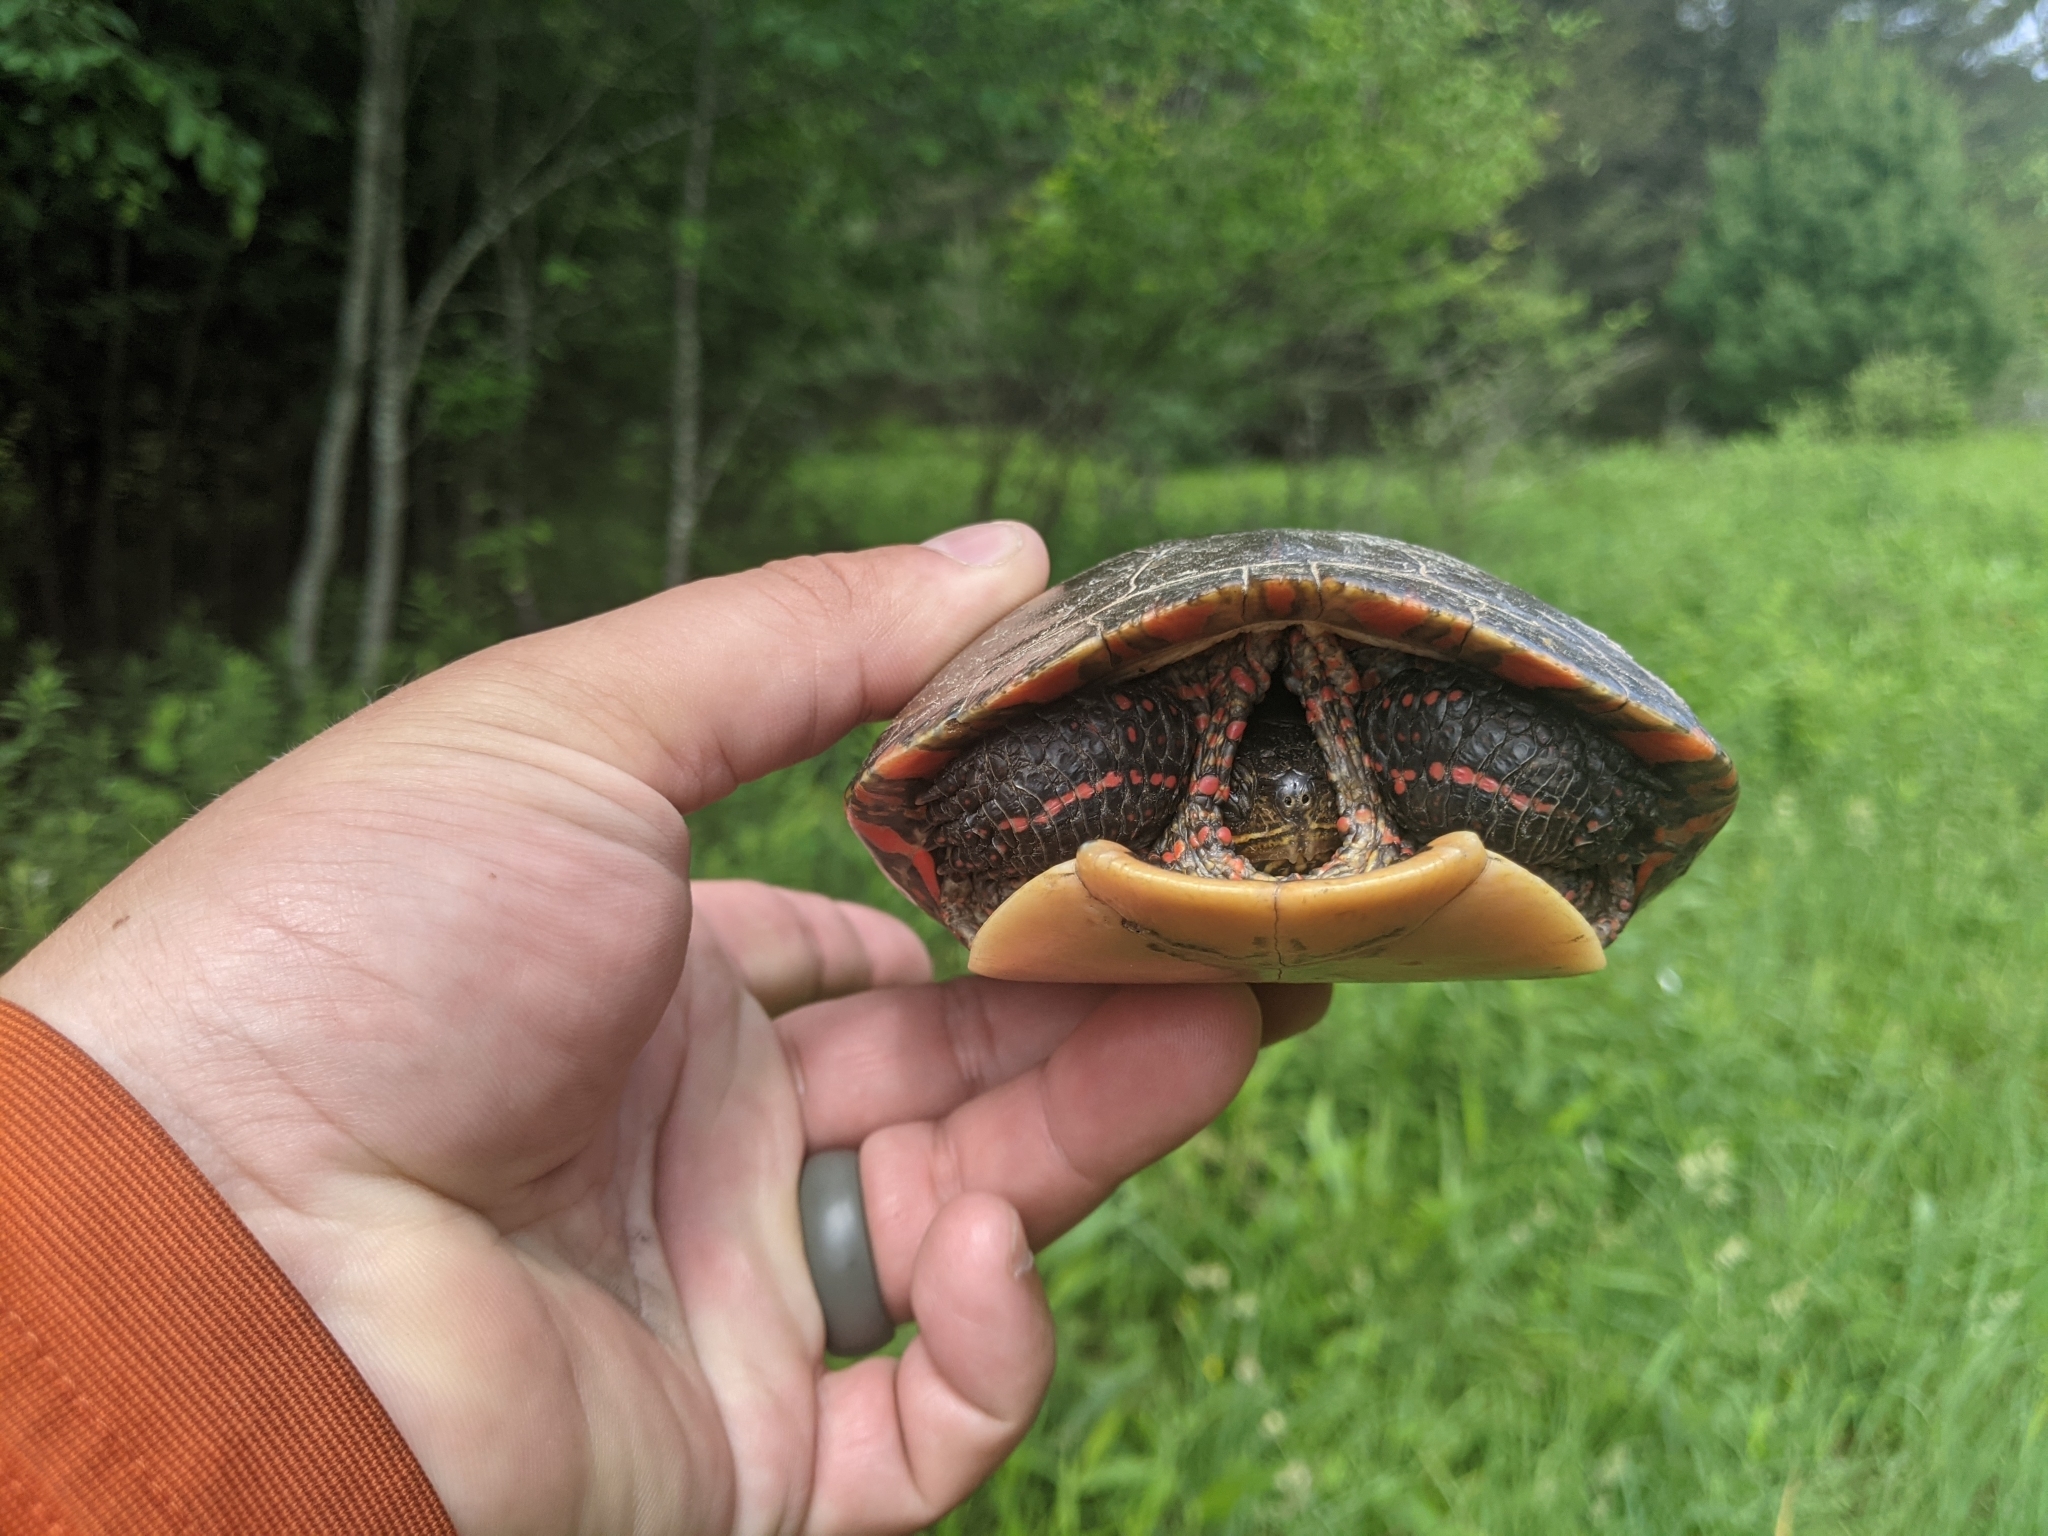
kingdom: Animalia
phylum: Chordata
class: Testudines
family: Emydidae
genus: Chrysemys
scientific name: Chrysemys picta
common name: Painted turtle
